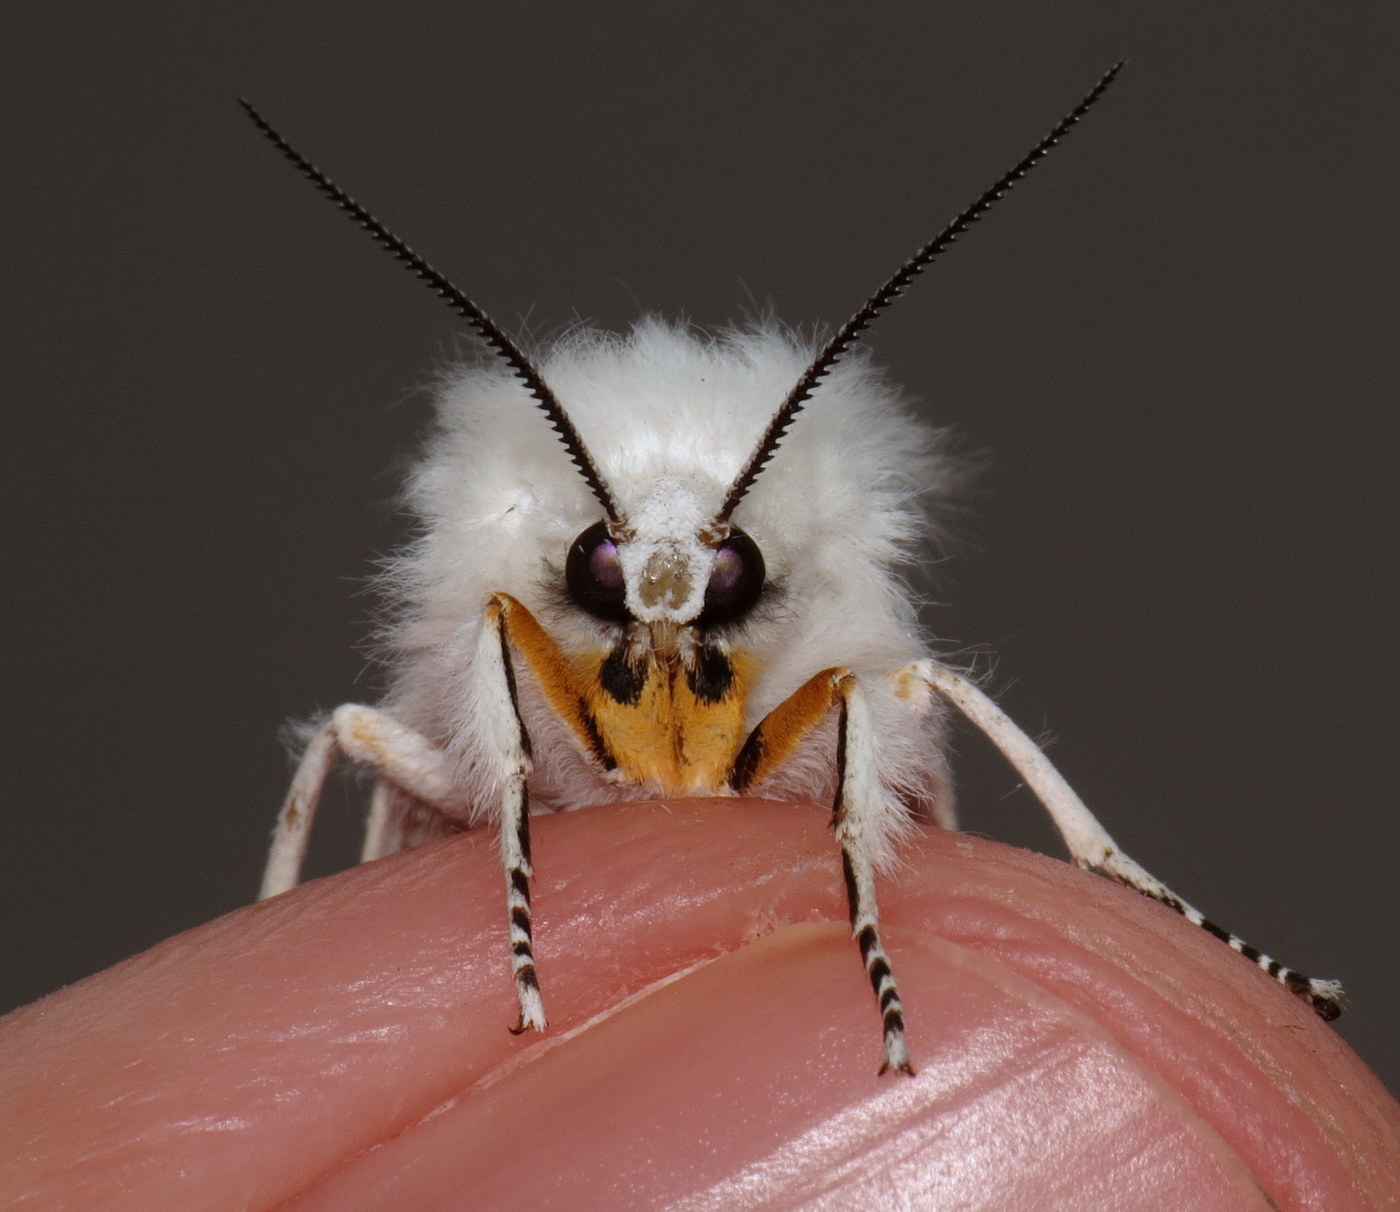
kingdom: Animalia
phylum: Arthropoda
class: Insecta
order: Lepidoptera
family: Erebidae
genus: Spilosoma
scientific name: Spilosoma virginica
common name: Virginia tiger moth
